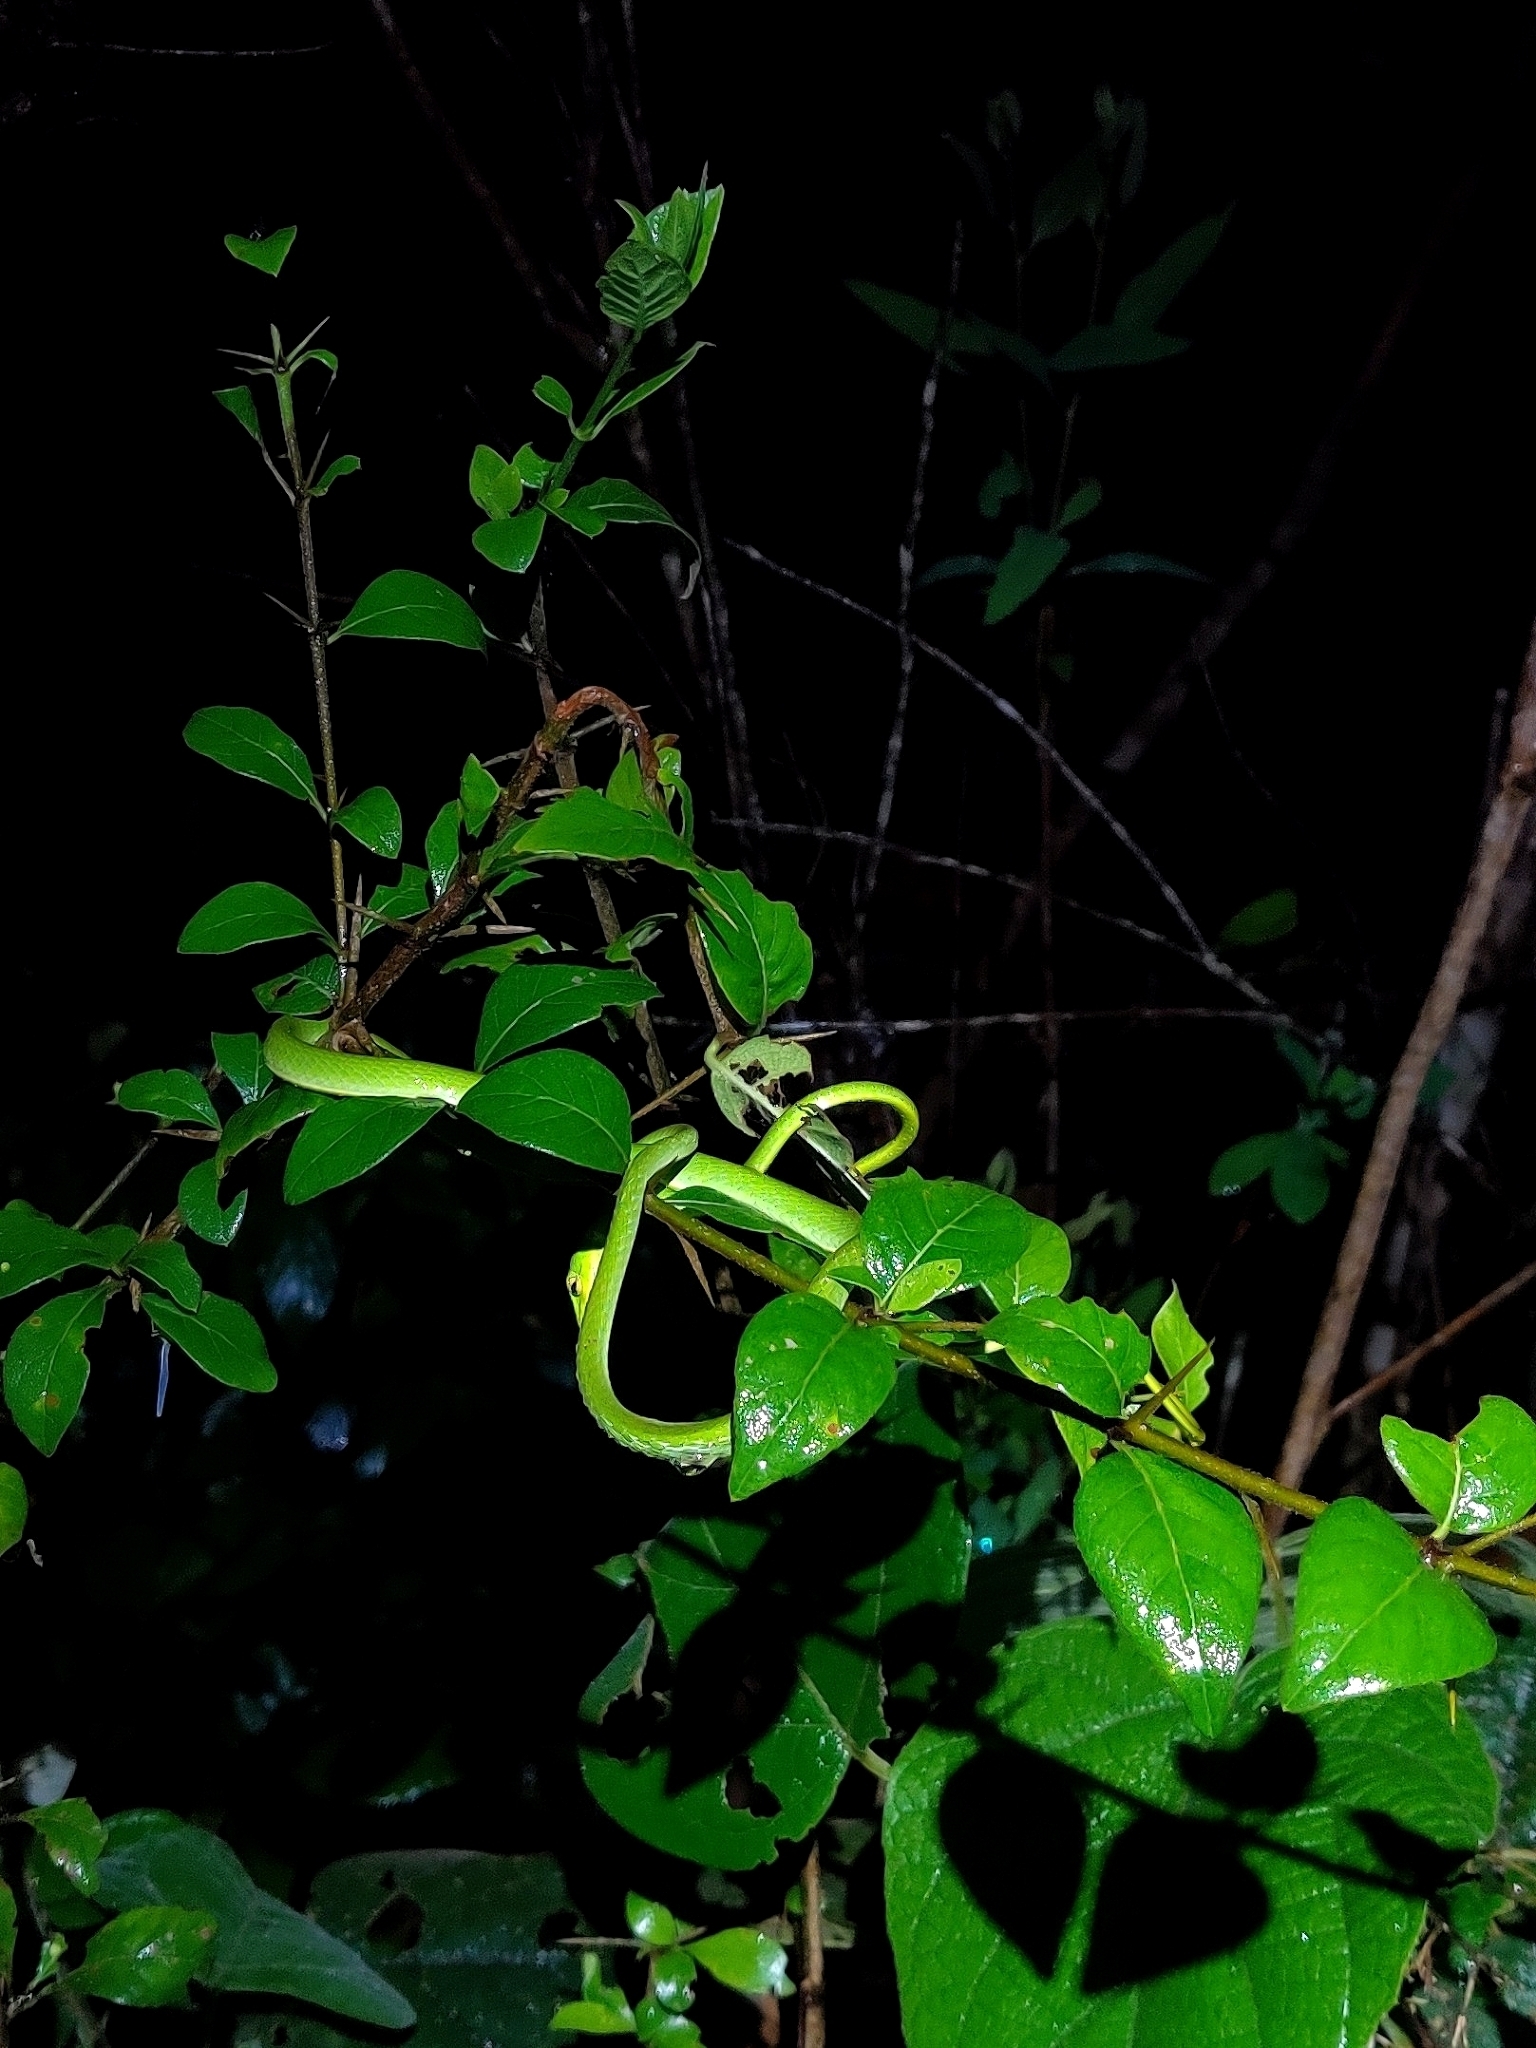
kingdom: Animalia
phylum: Chordata
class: Squamata
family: Colubridae
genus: Ahaetulla
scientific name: Ahaetulla borealis
